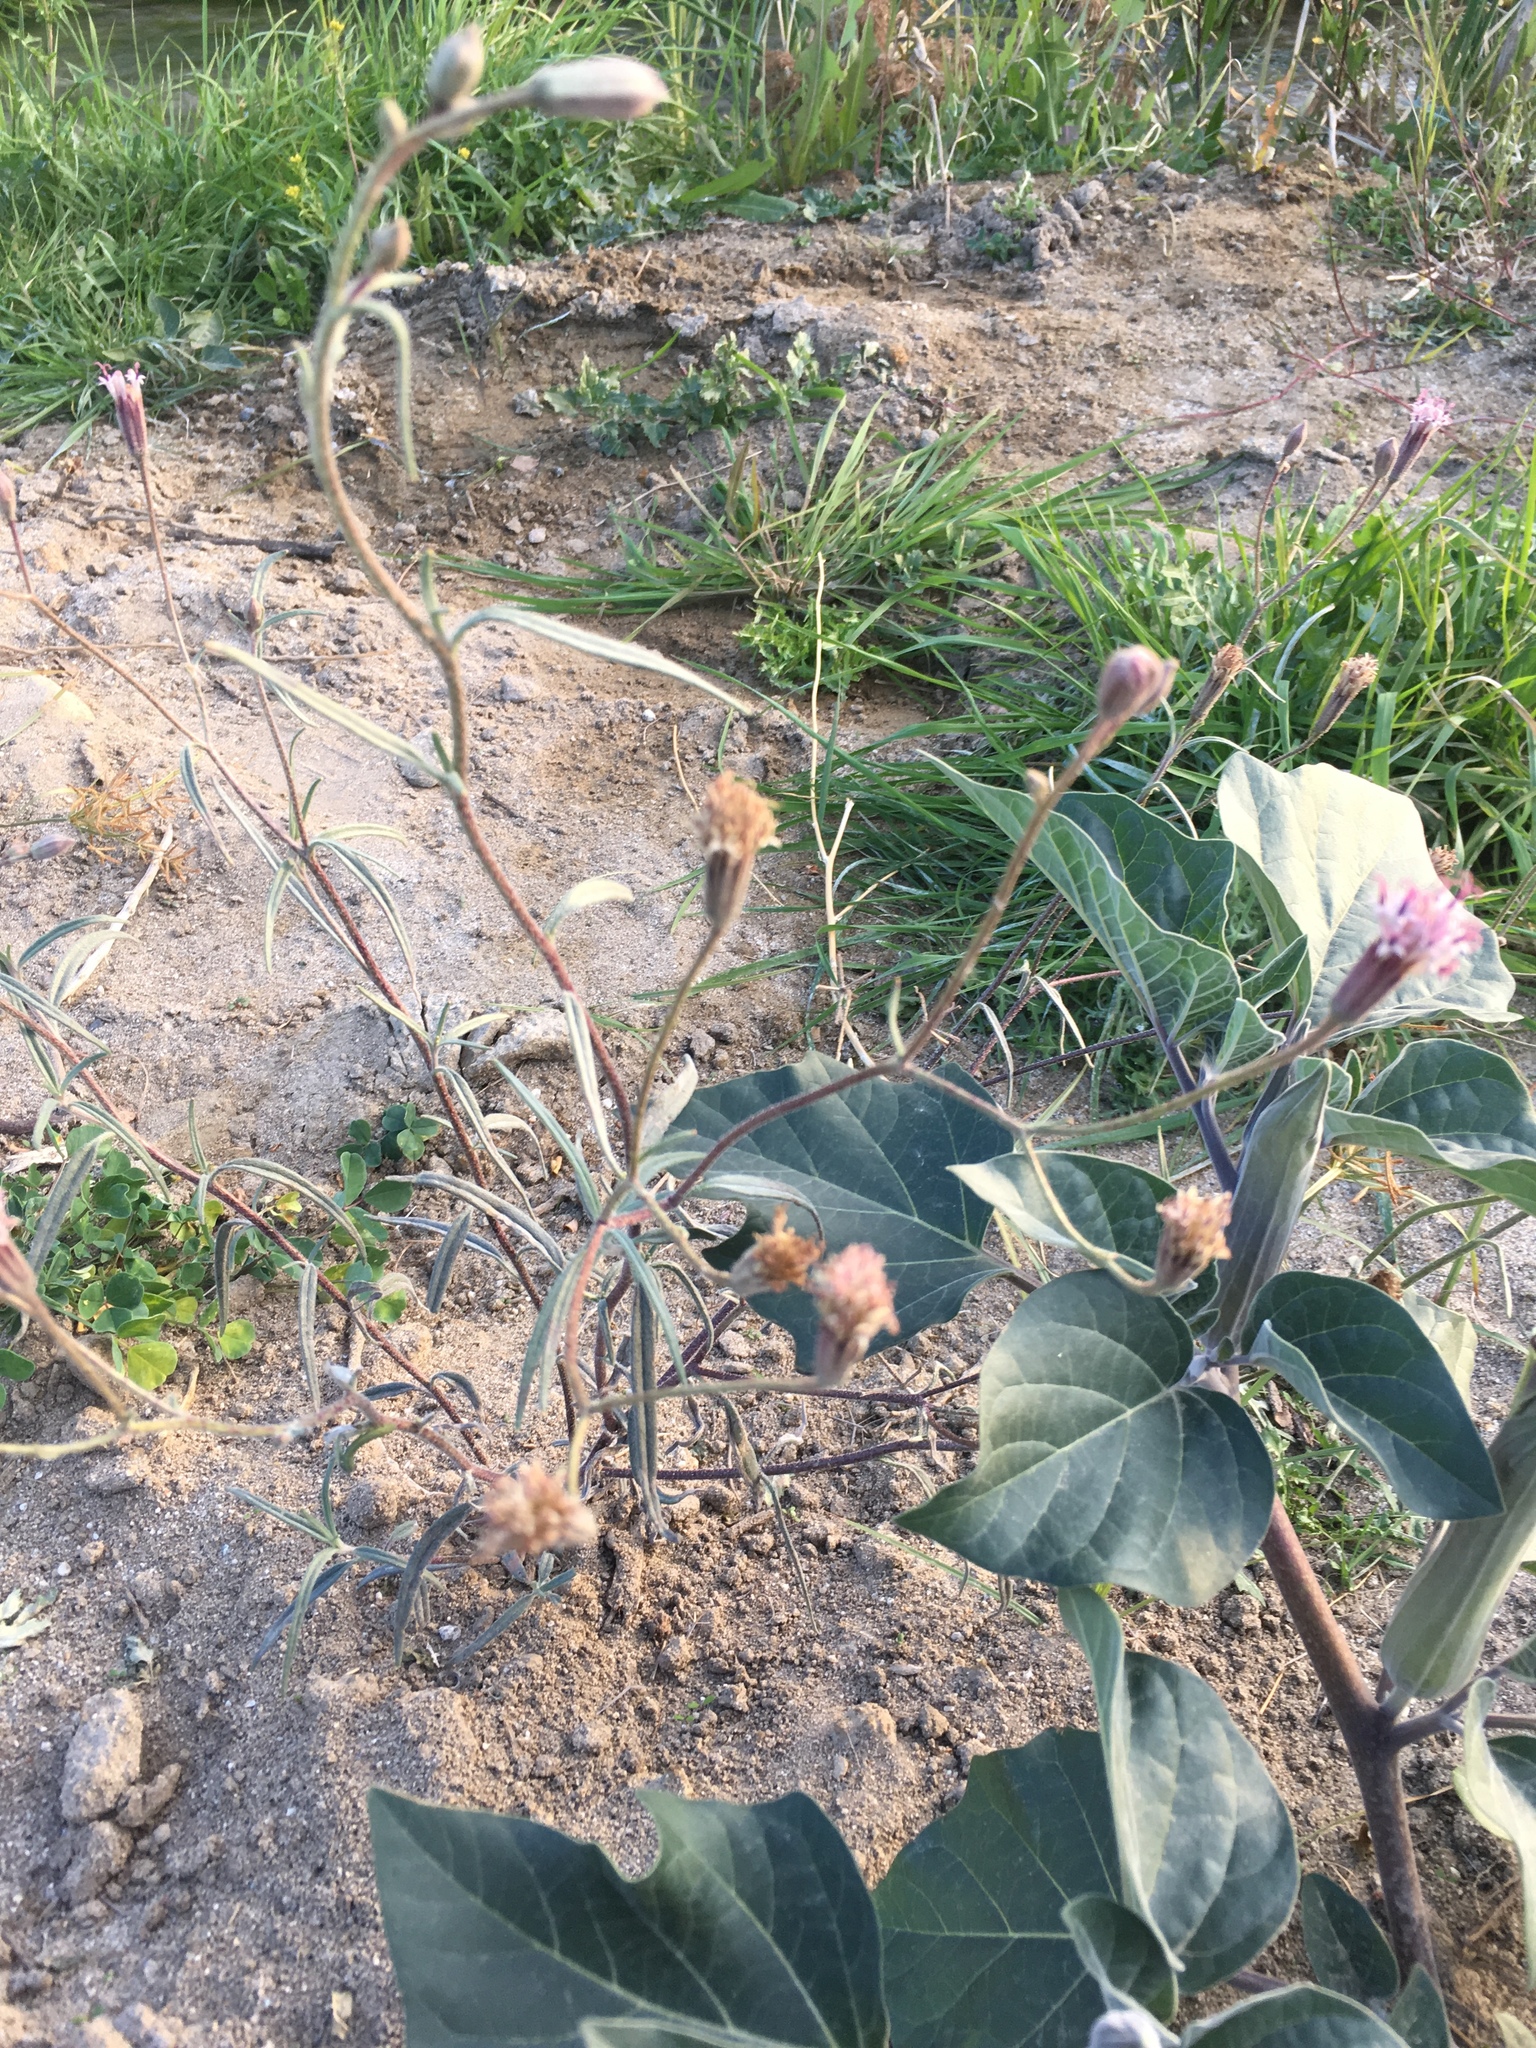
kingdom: Plantae
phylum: Tracheophyta
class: Magnoliopsida
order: Asterales
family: Asteraceae
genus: Palafoxia
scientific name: Palafoxia arida
